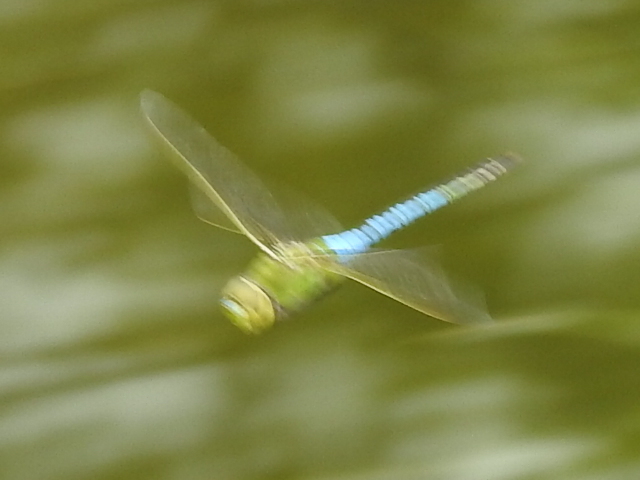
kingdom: Animalia
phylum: Arthropoda
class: Insecta
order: Odonata
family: Aeshnidae
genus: Anax
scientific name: Anax junius
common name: Common green darner
